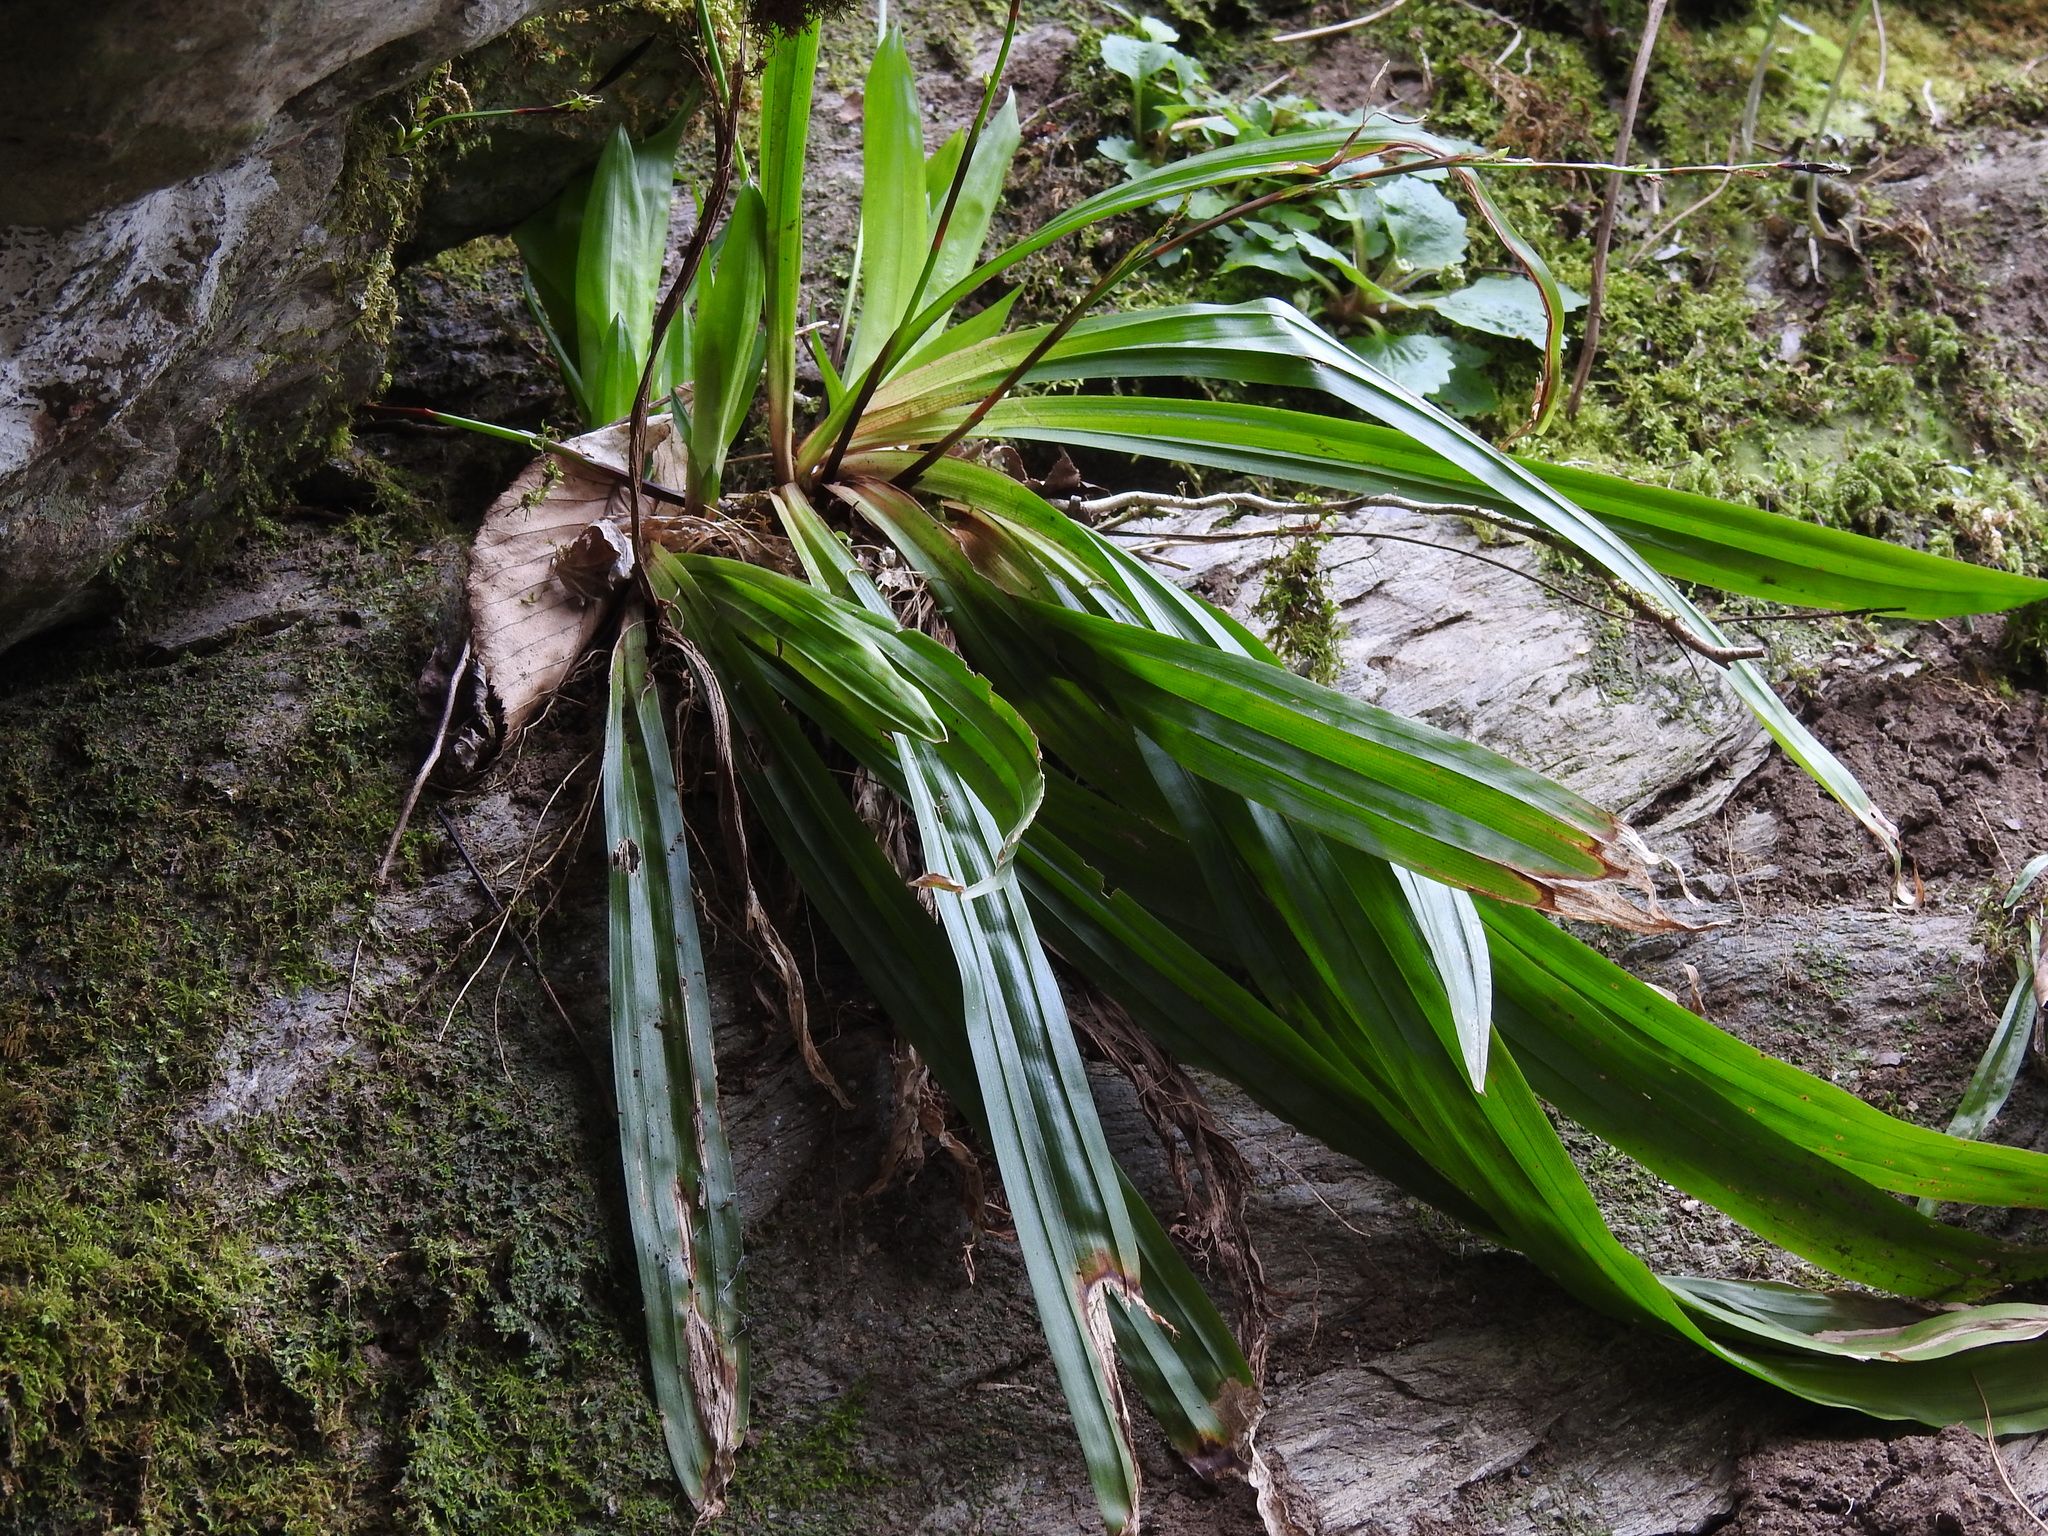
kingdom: Plantae
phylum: Tracheophyta
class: Liliopsida
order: Poales
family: Cyperaceae
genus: Carex
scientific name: Carex plantaginea
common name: Plantain-leaved sedge
